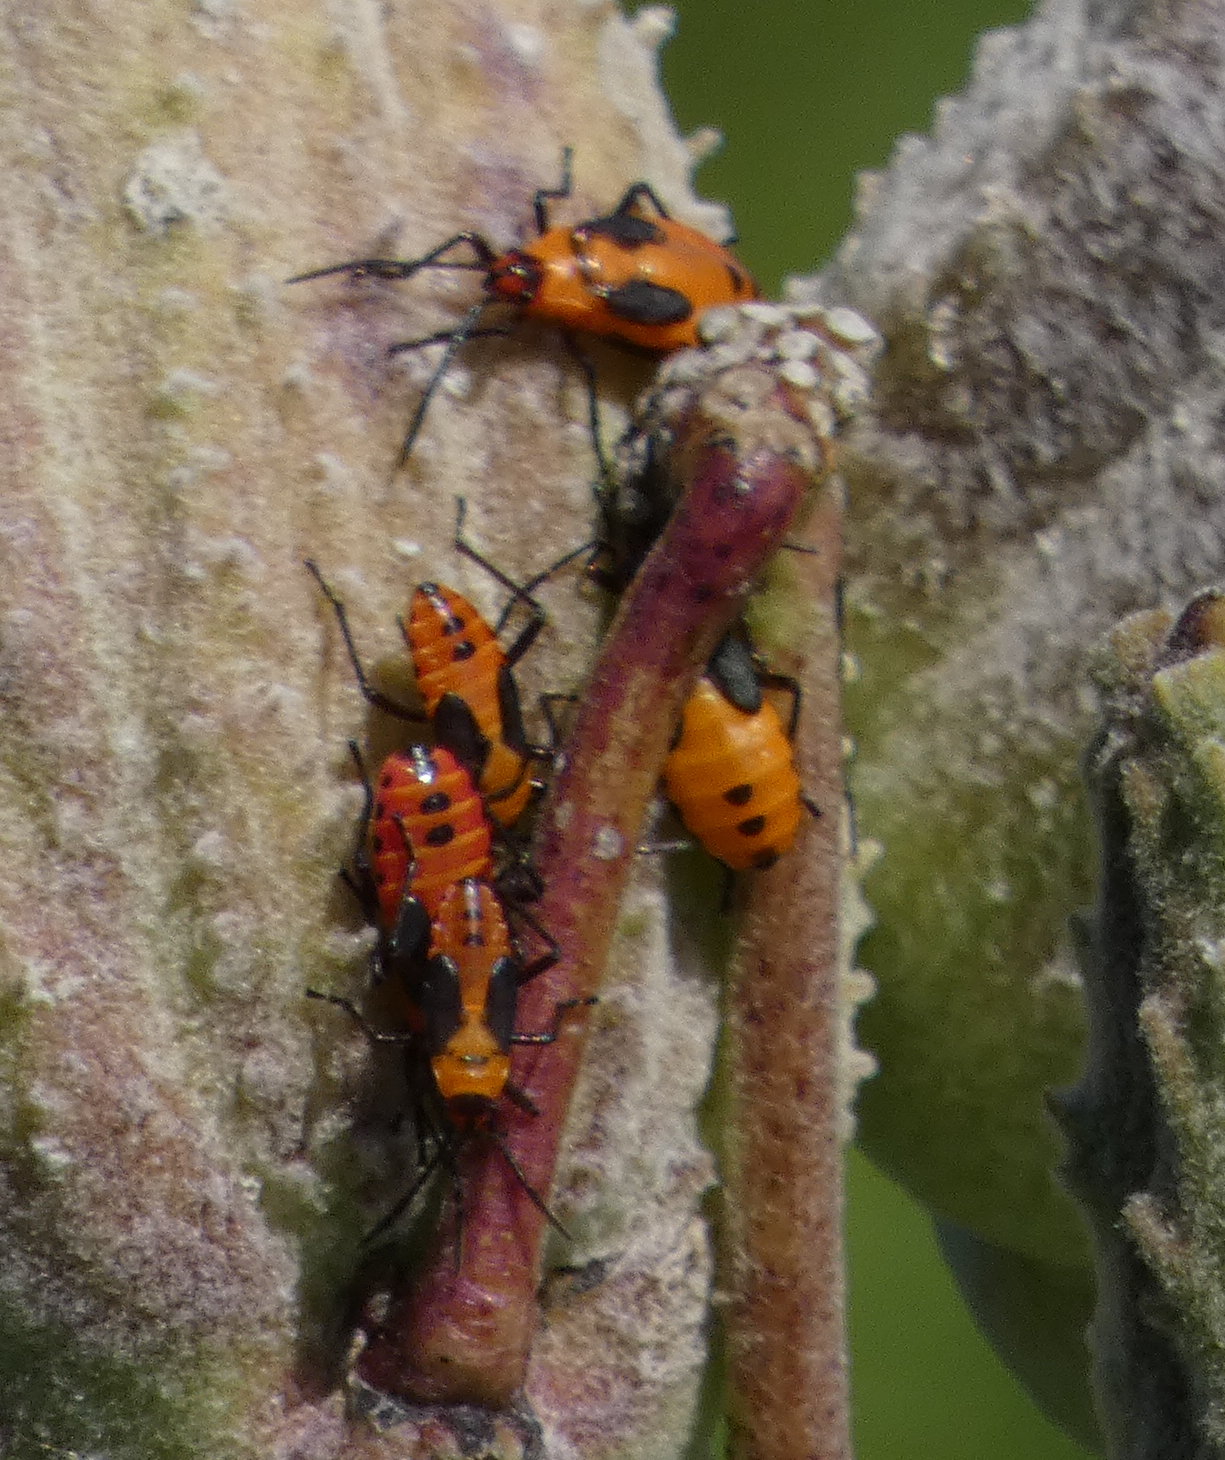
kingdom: Animalia
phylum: Arthropoda
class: Insecta
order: Hemiptera
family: Lygaeidae
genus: Oncopeltus
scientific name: Oncopeltus fasciatus
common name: Large milkweed bug
